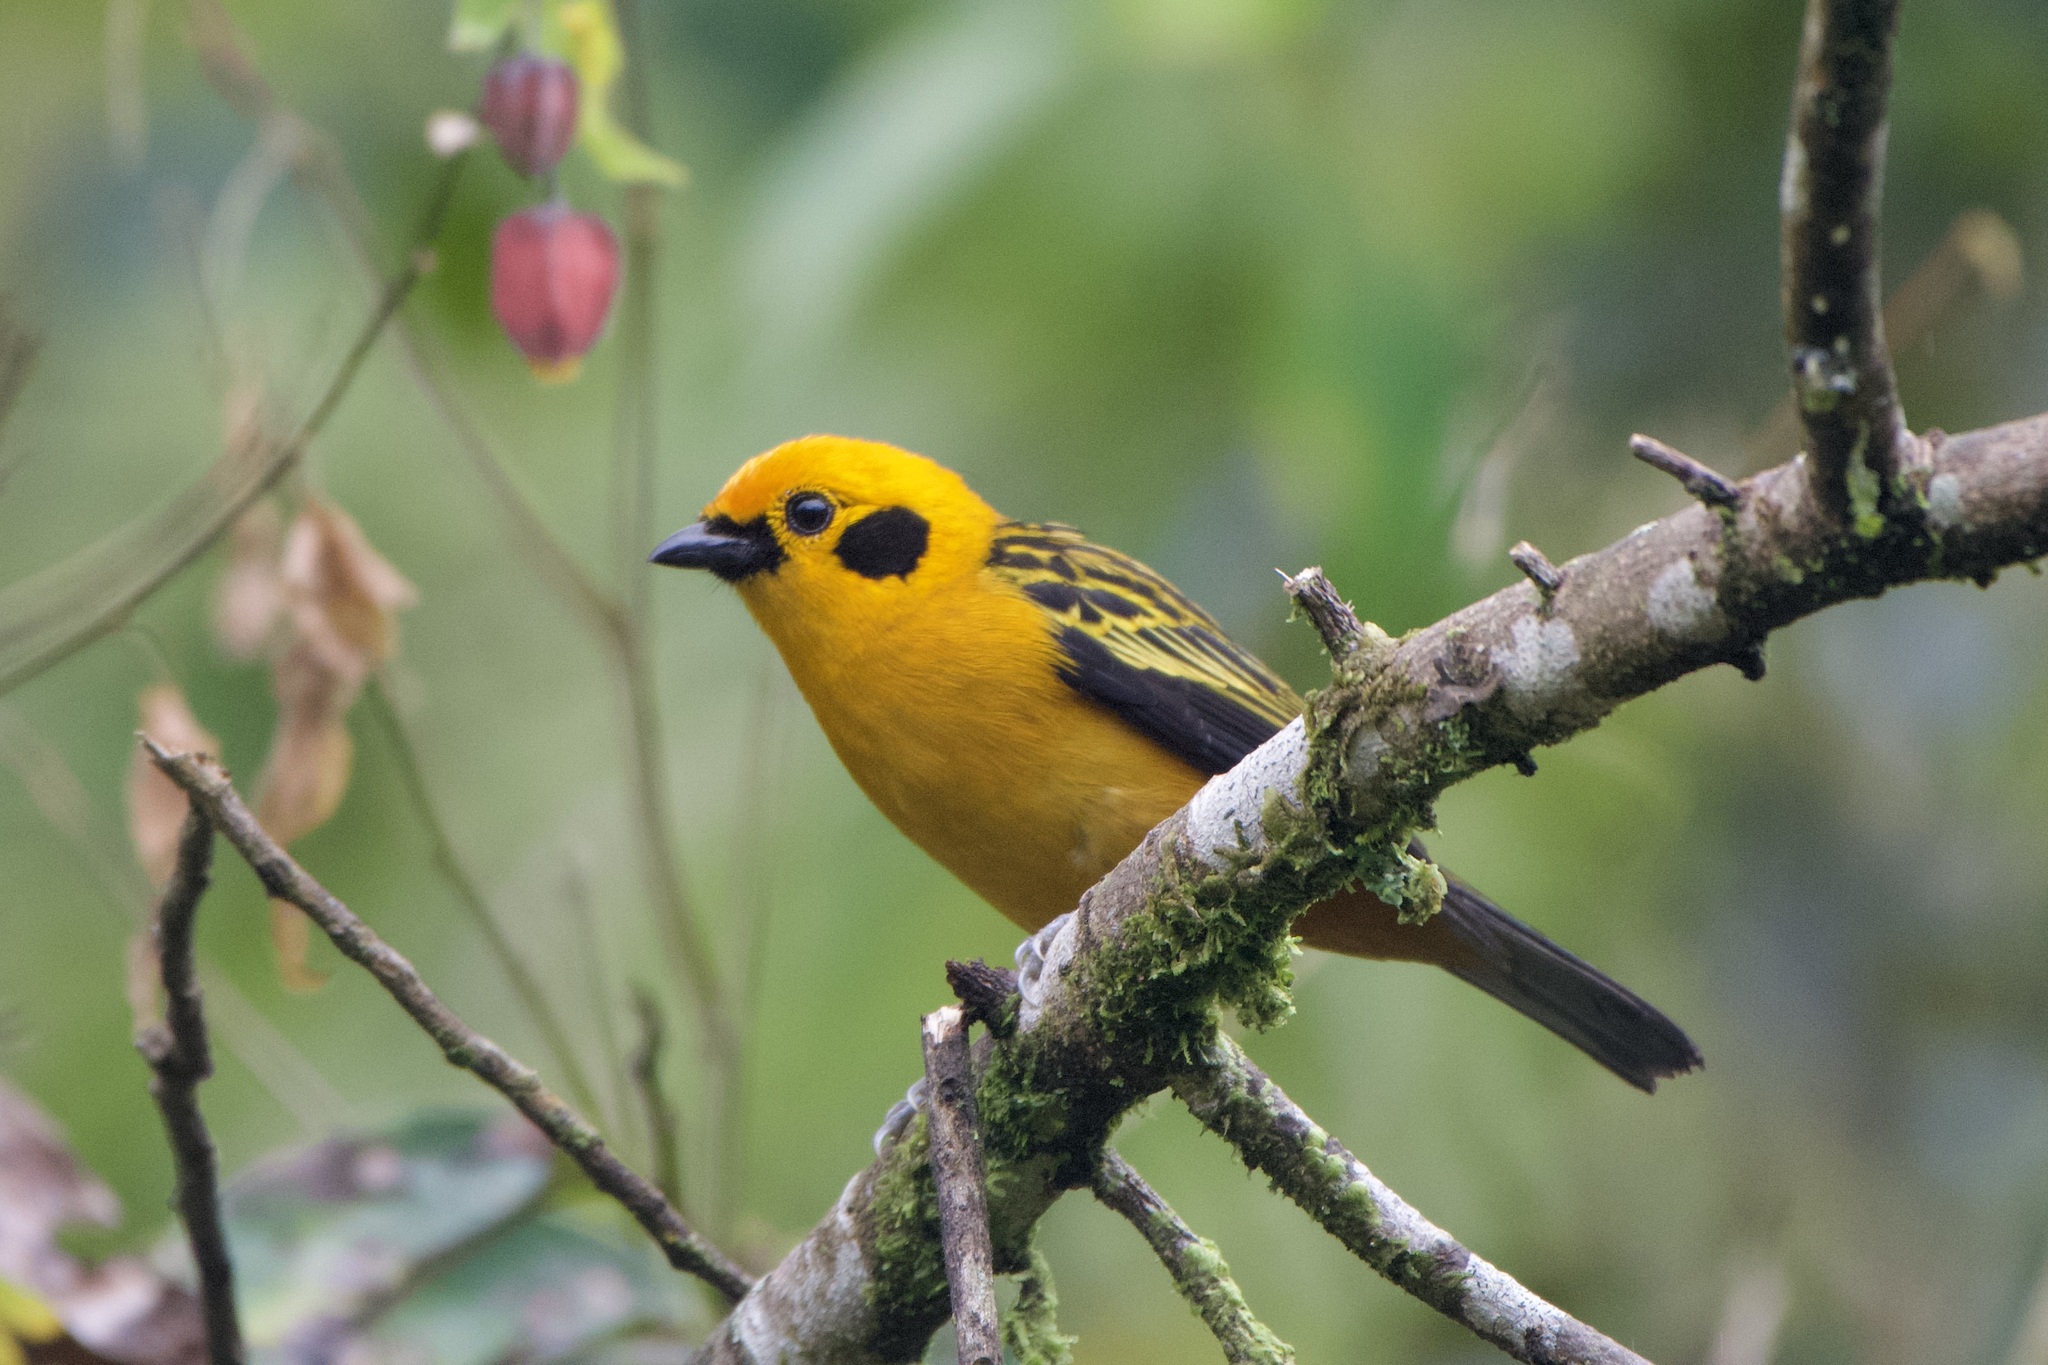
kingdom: Animalia
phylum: Chordata
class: Aves
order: Passeriformes
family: Thraupidae
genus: Tangara
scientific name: Tangara arthus
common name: Golden tanager
